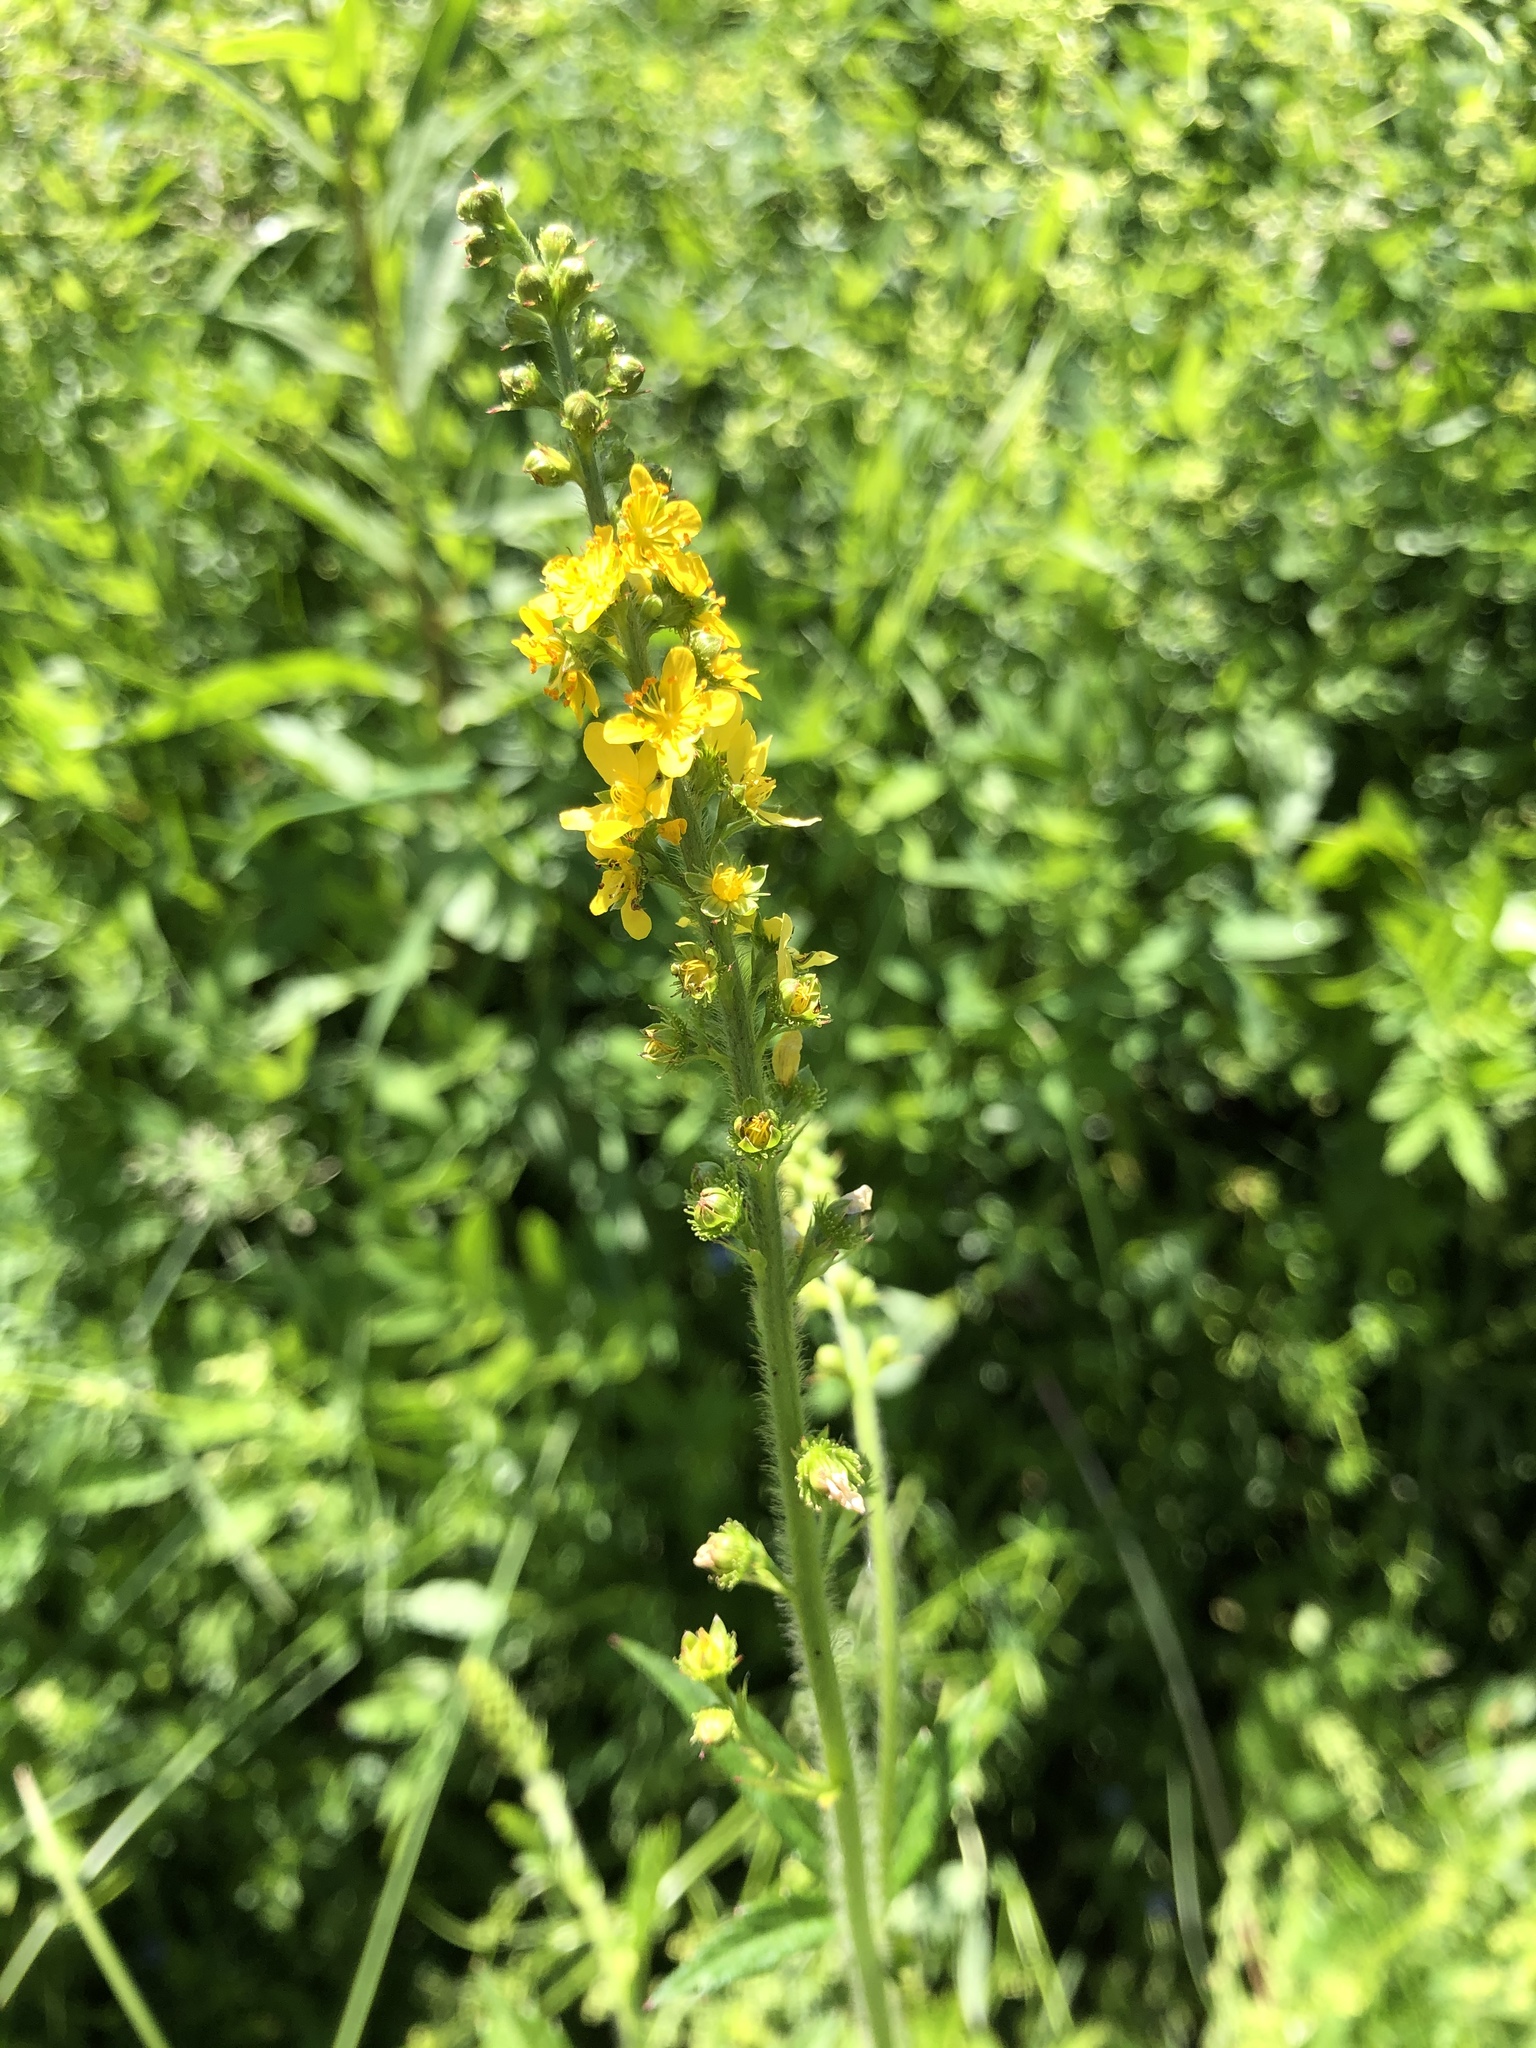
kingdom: Plantae
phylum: Tracheophyta
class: Magnoliopsida
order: Rosales
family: Rosaceae
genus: Agrimonia
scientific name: Agrimonia pilosa
